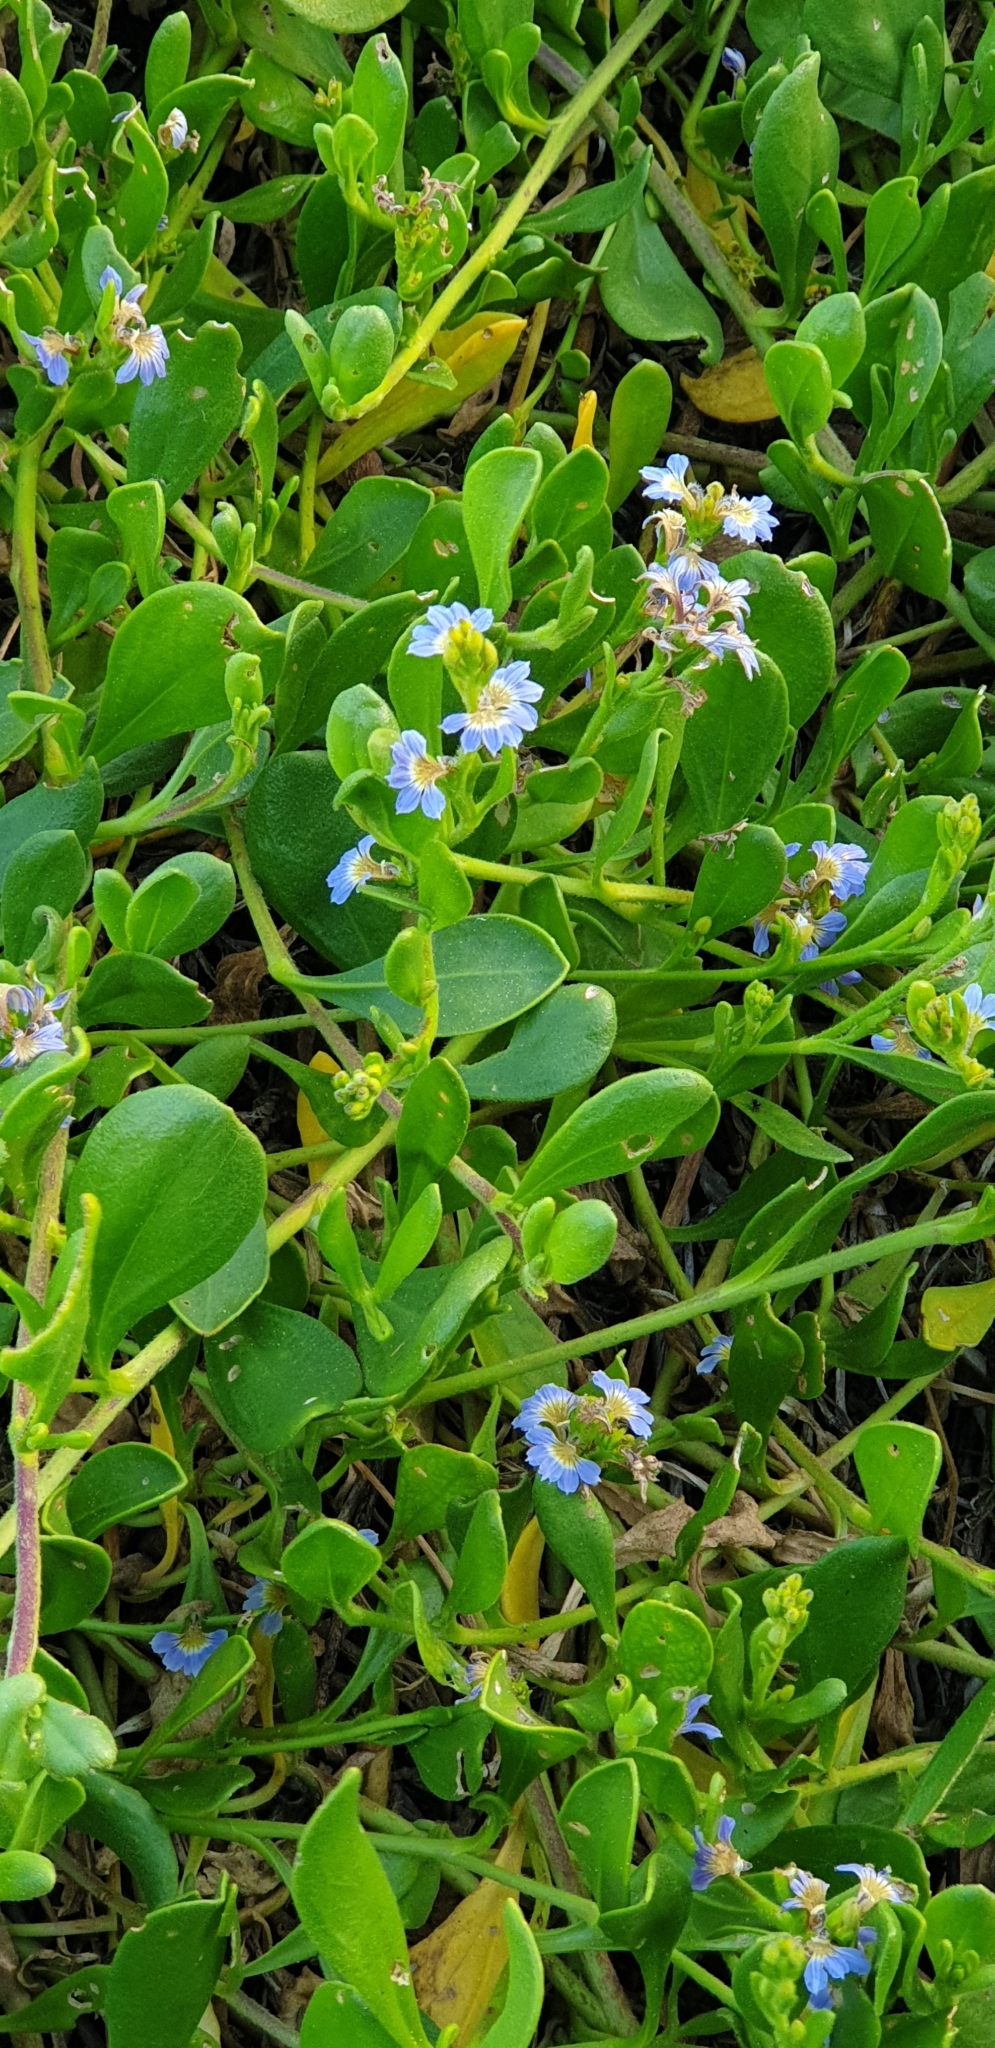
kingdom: Plantae
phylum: Tracheophyta
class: Magnoliopsida
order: Asterales
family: Goodeniaceae
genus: Scaevola
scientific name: Scaevola calendulacea
